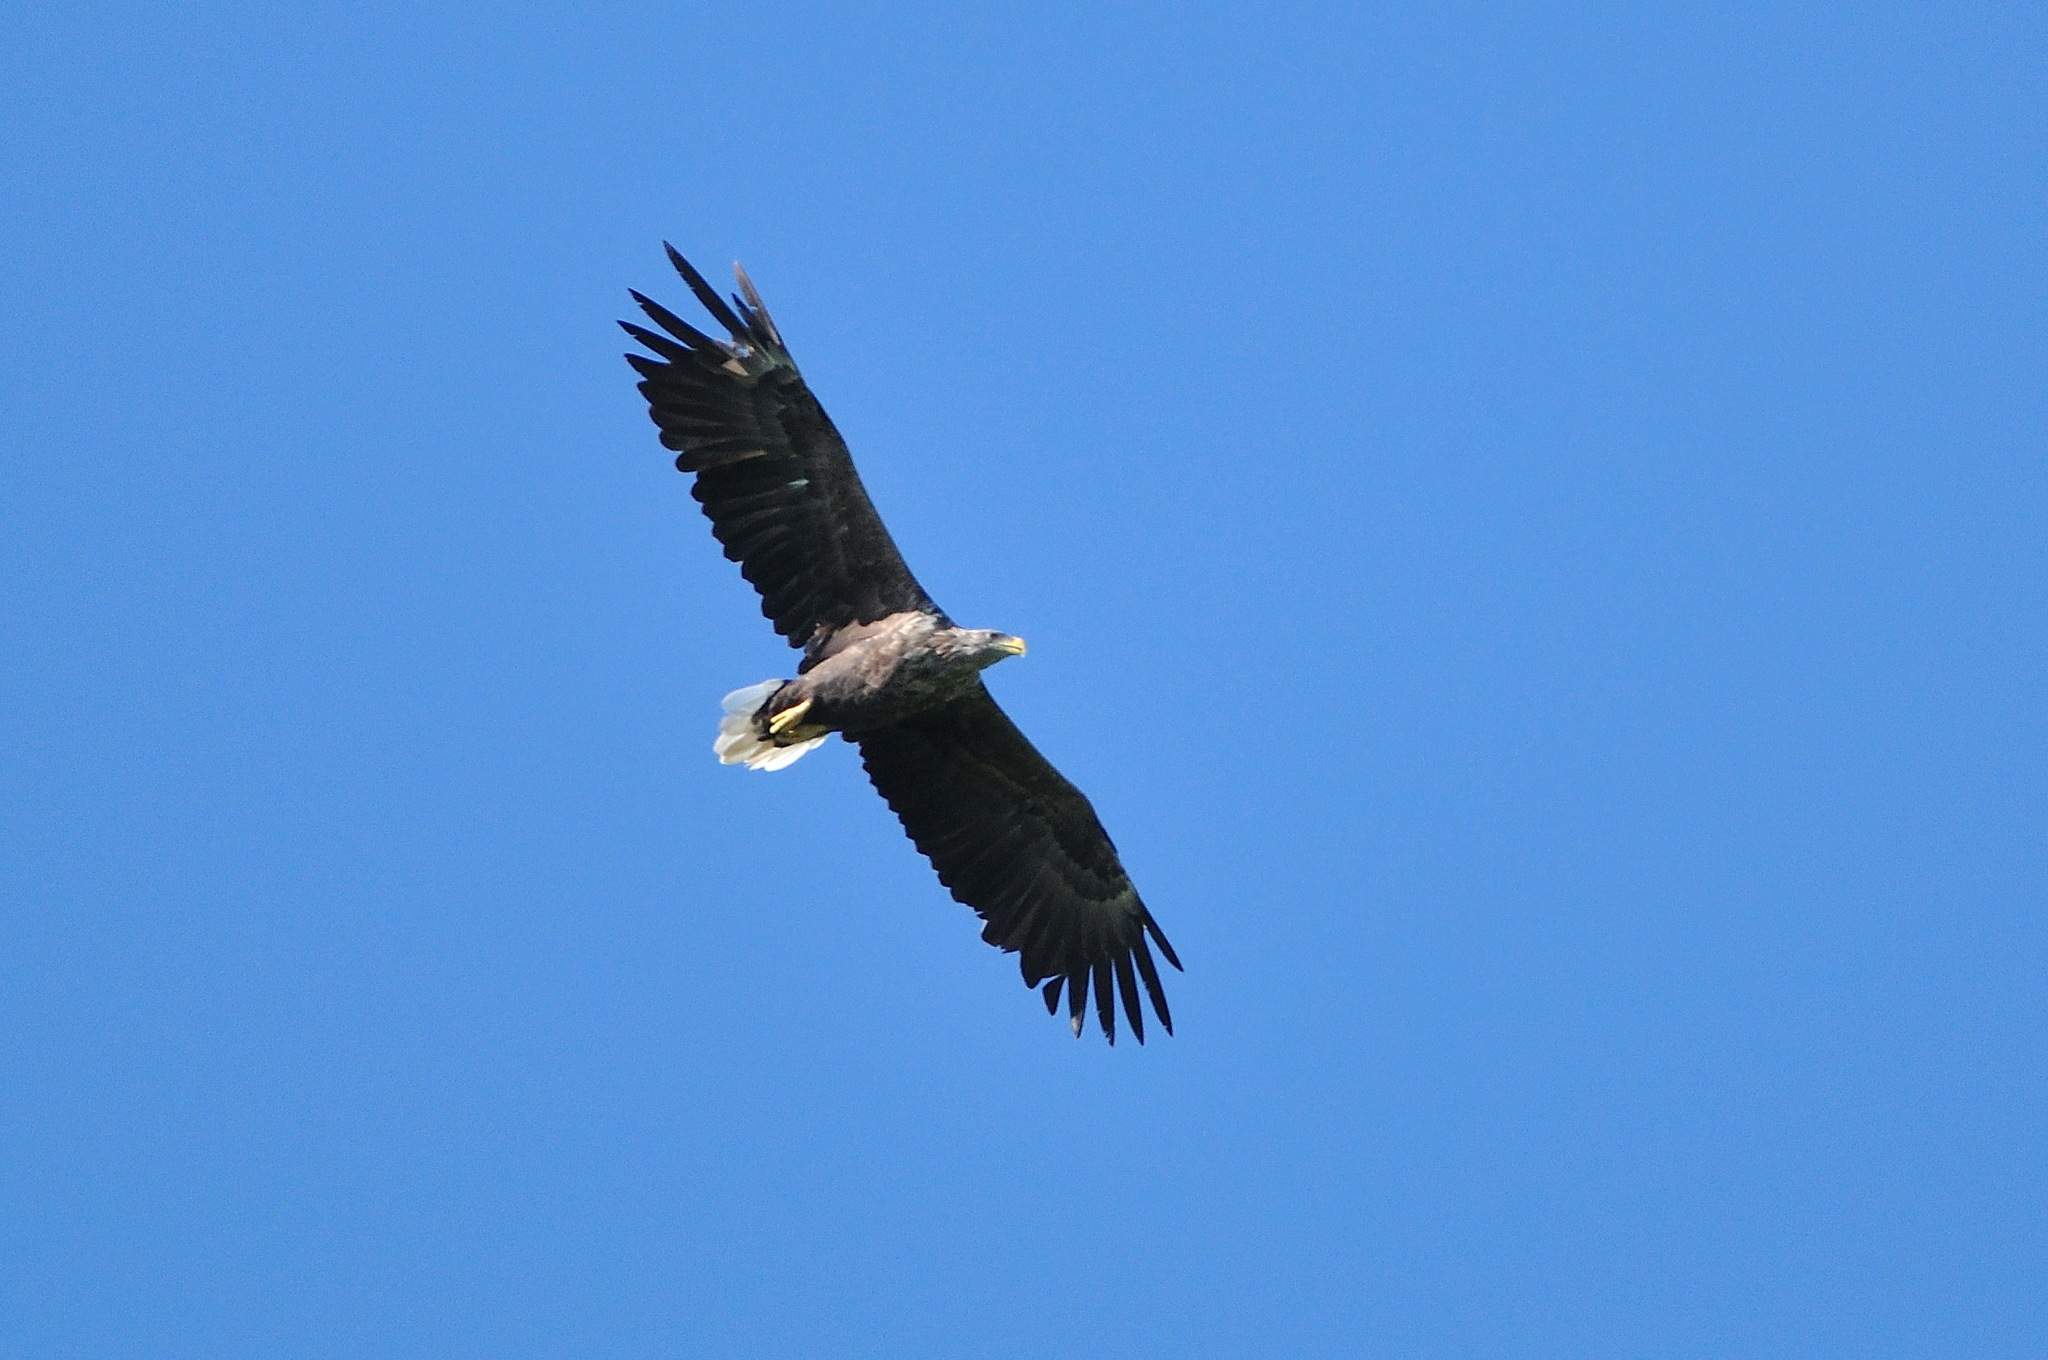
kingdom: Animalia
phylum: Chordata
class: Aves
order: Accipitriformes
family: Accipitridae
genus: Haliaeetus
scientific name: Haliaeetus albicilla
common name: White-tailed eagle
